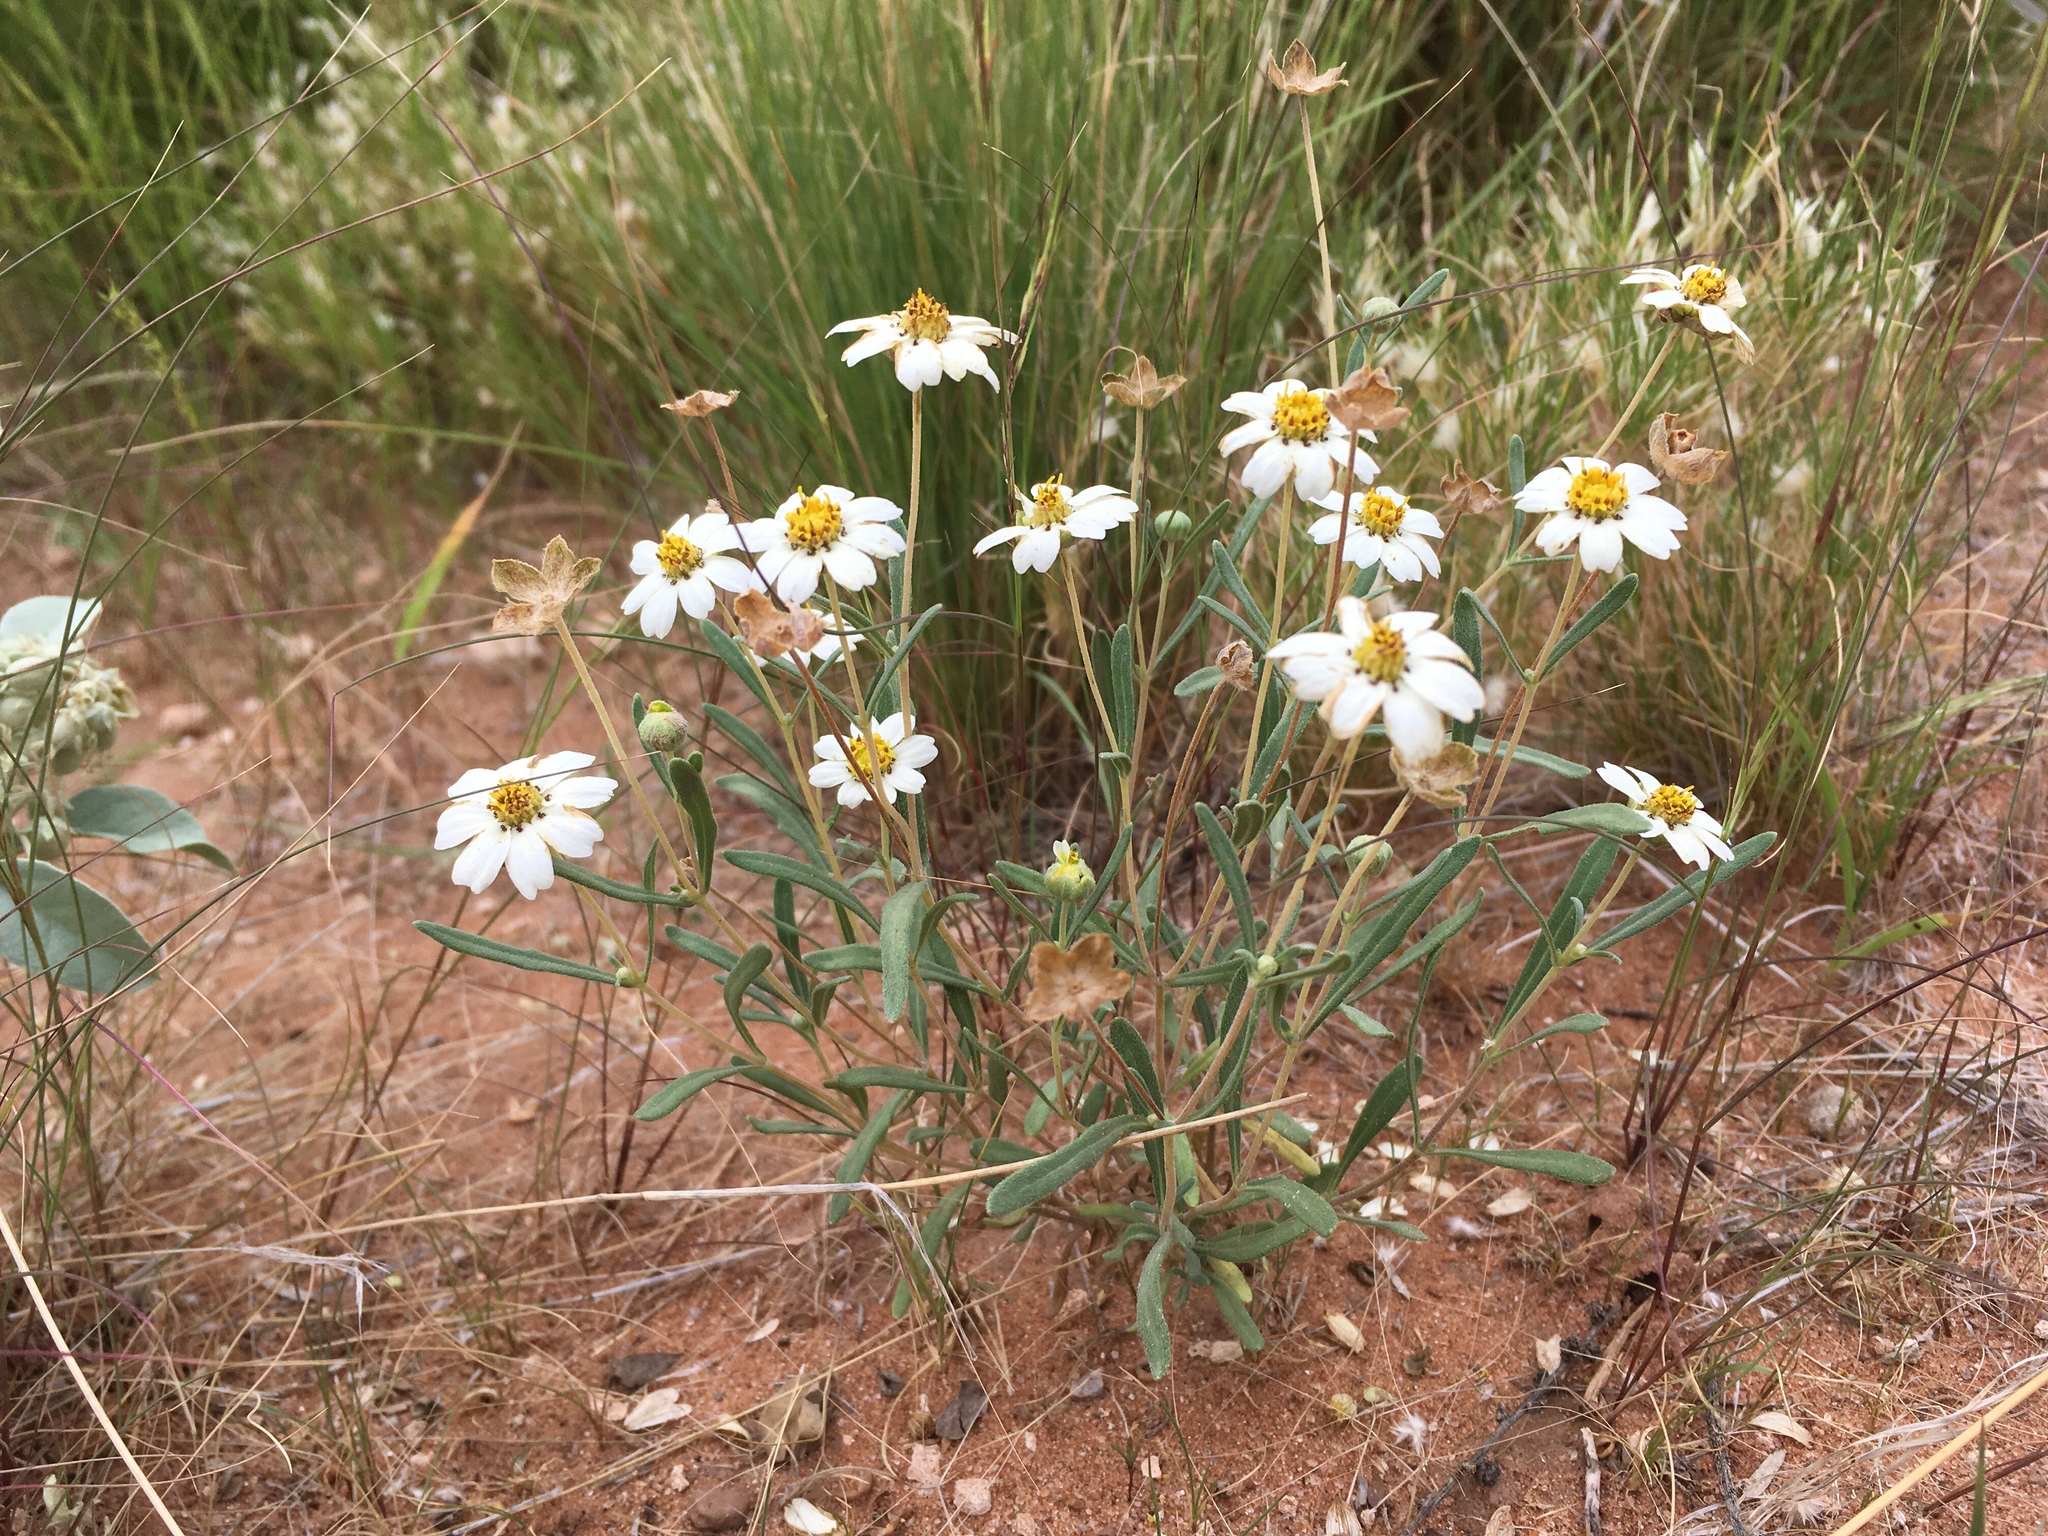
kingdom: Plantae
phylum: Tracheophyta
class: Magnoliopsida
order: Asterales
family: Asteraceae
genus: Melampodium
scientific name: Melampodium leucanthum
